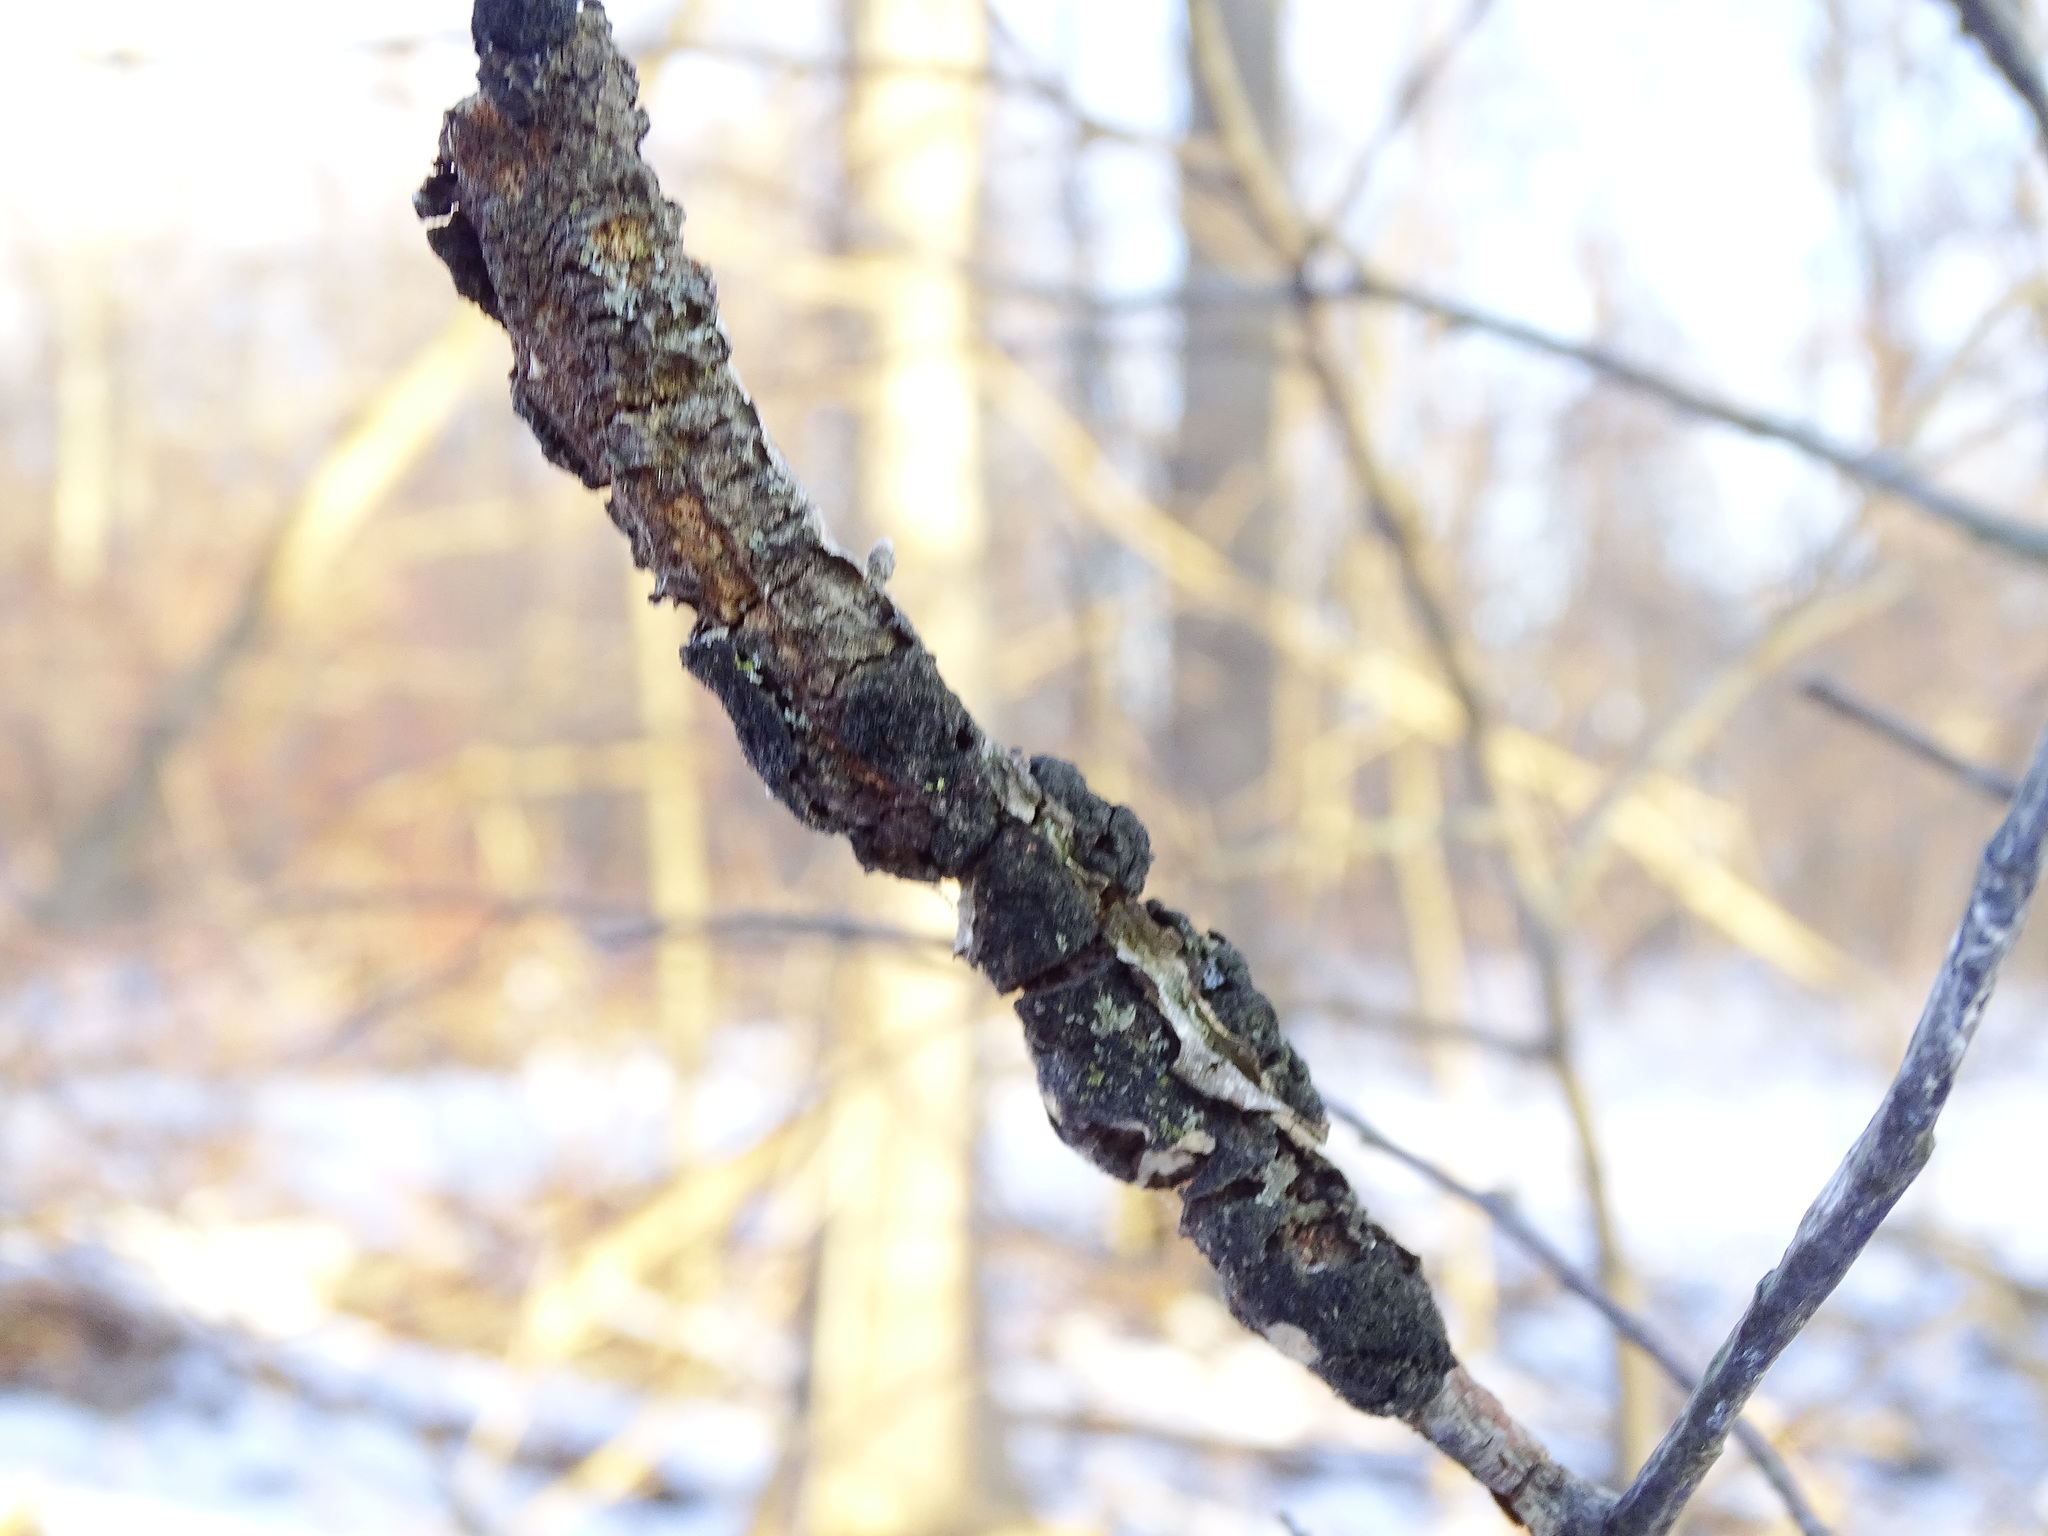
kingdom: Fungi
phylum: Ascomycota
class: Dothideomycetes
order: Venturiales
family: Venturiaceae
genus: Apiosporina
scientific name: Apiosporina morbosa
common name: Black knot
